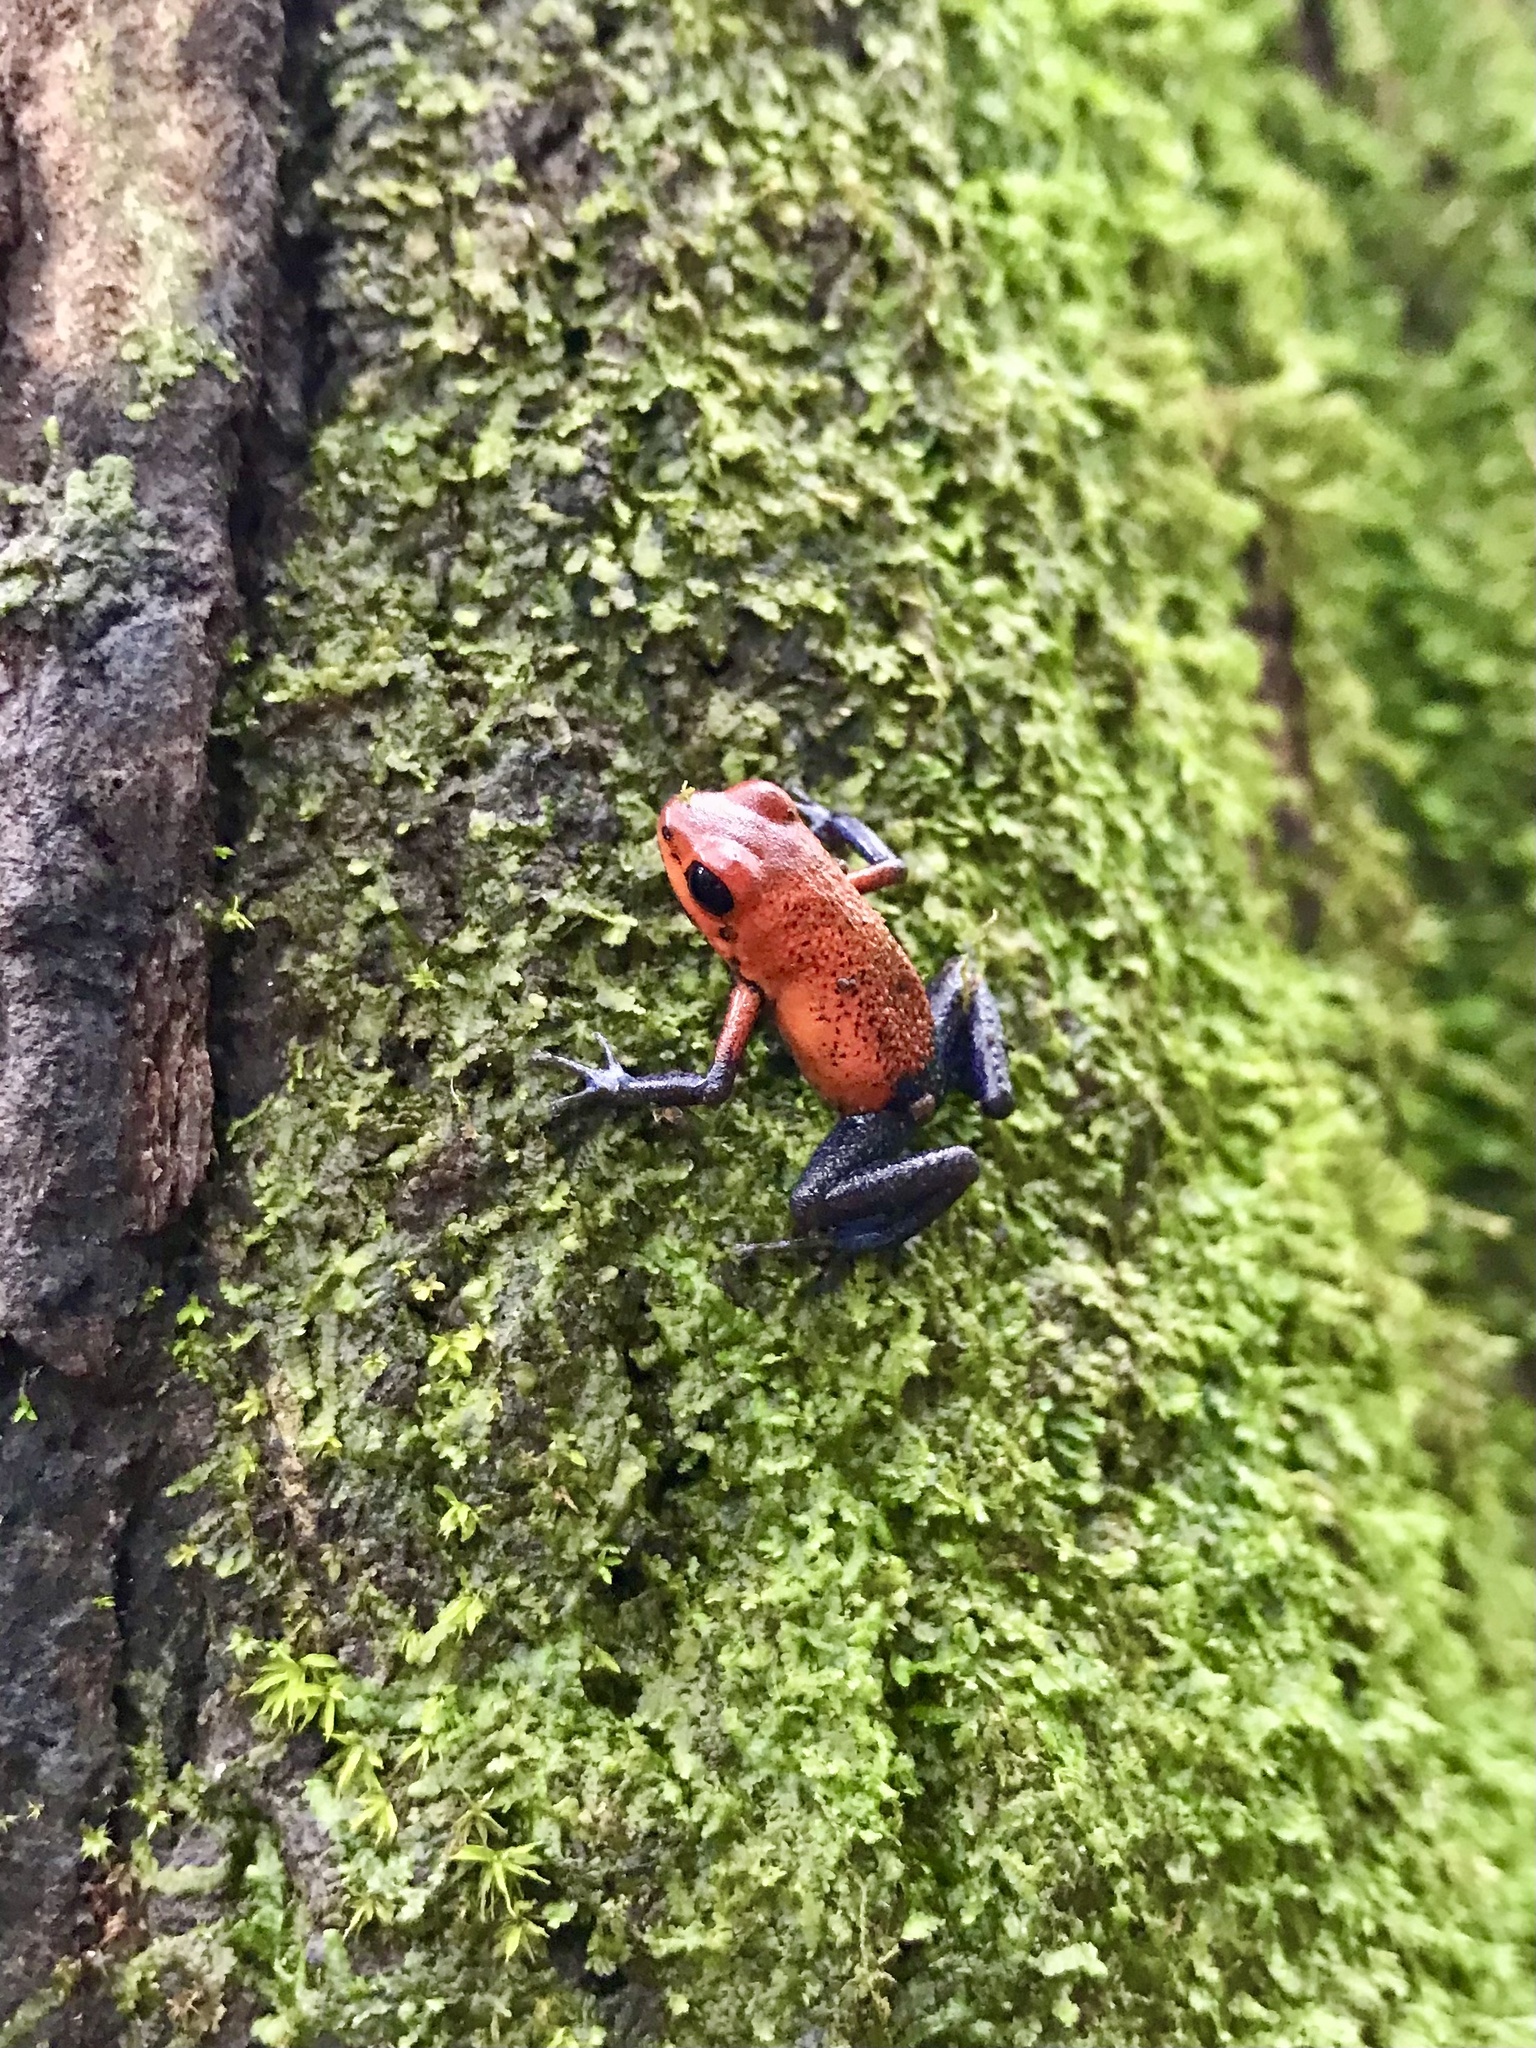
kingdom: Animalia
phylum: Chordata
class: Amphibia
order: Anura
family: Dendrobatidae
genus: Oophaga
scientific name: Oophaga pumilio
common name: Flaming poison frog
